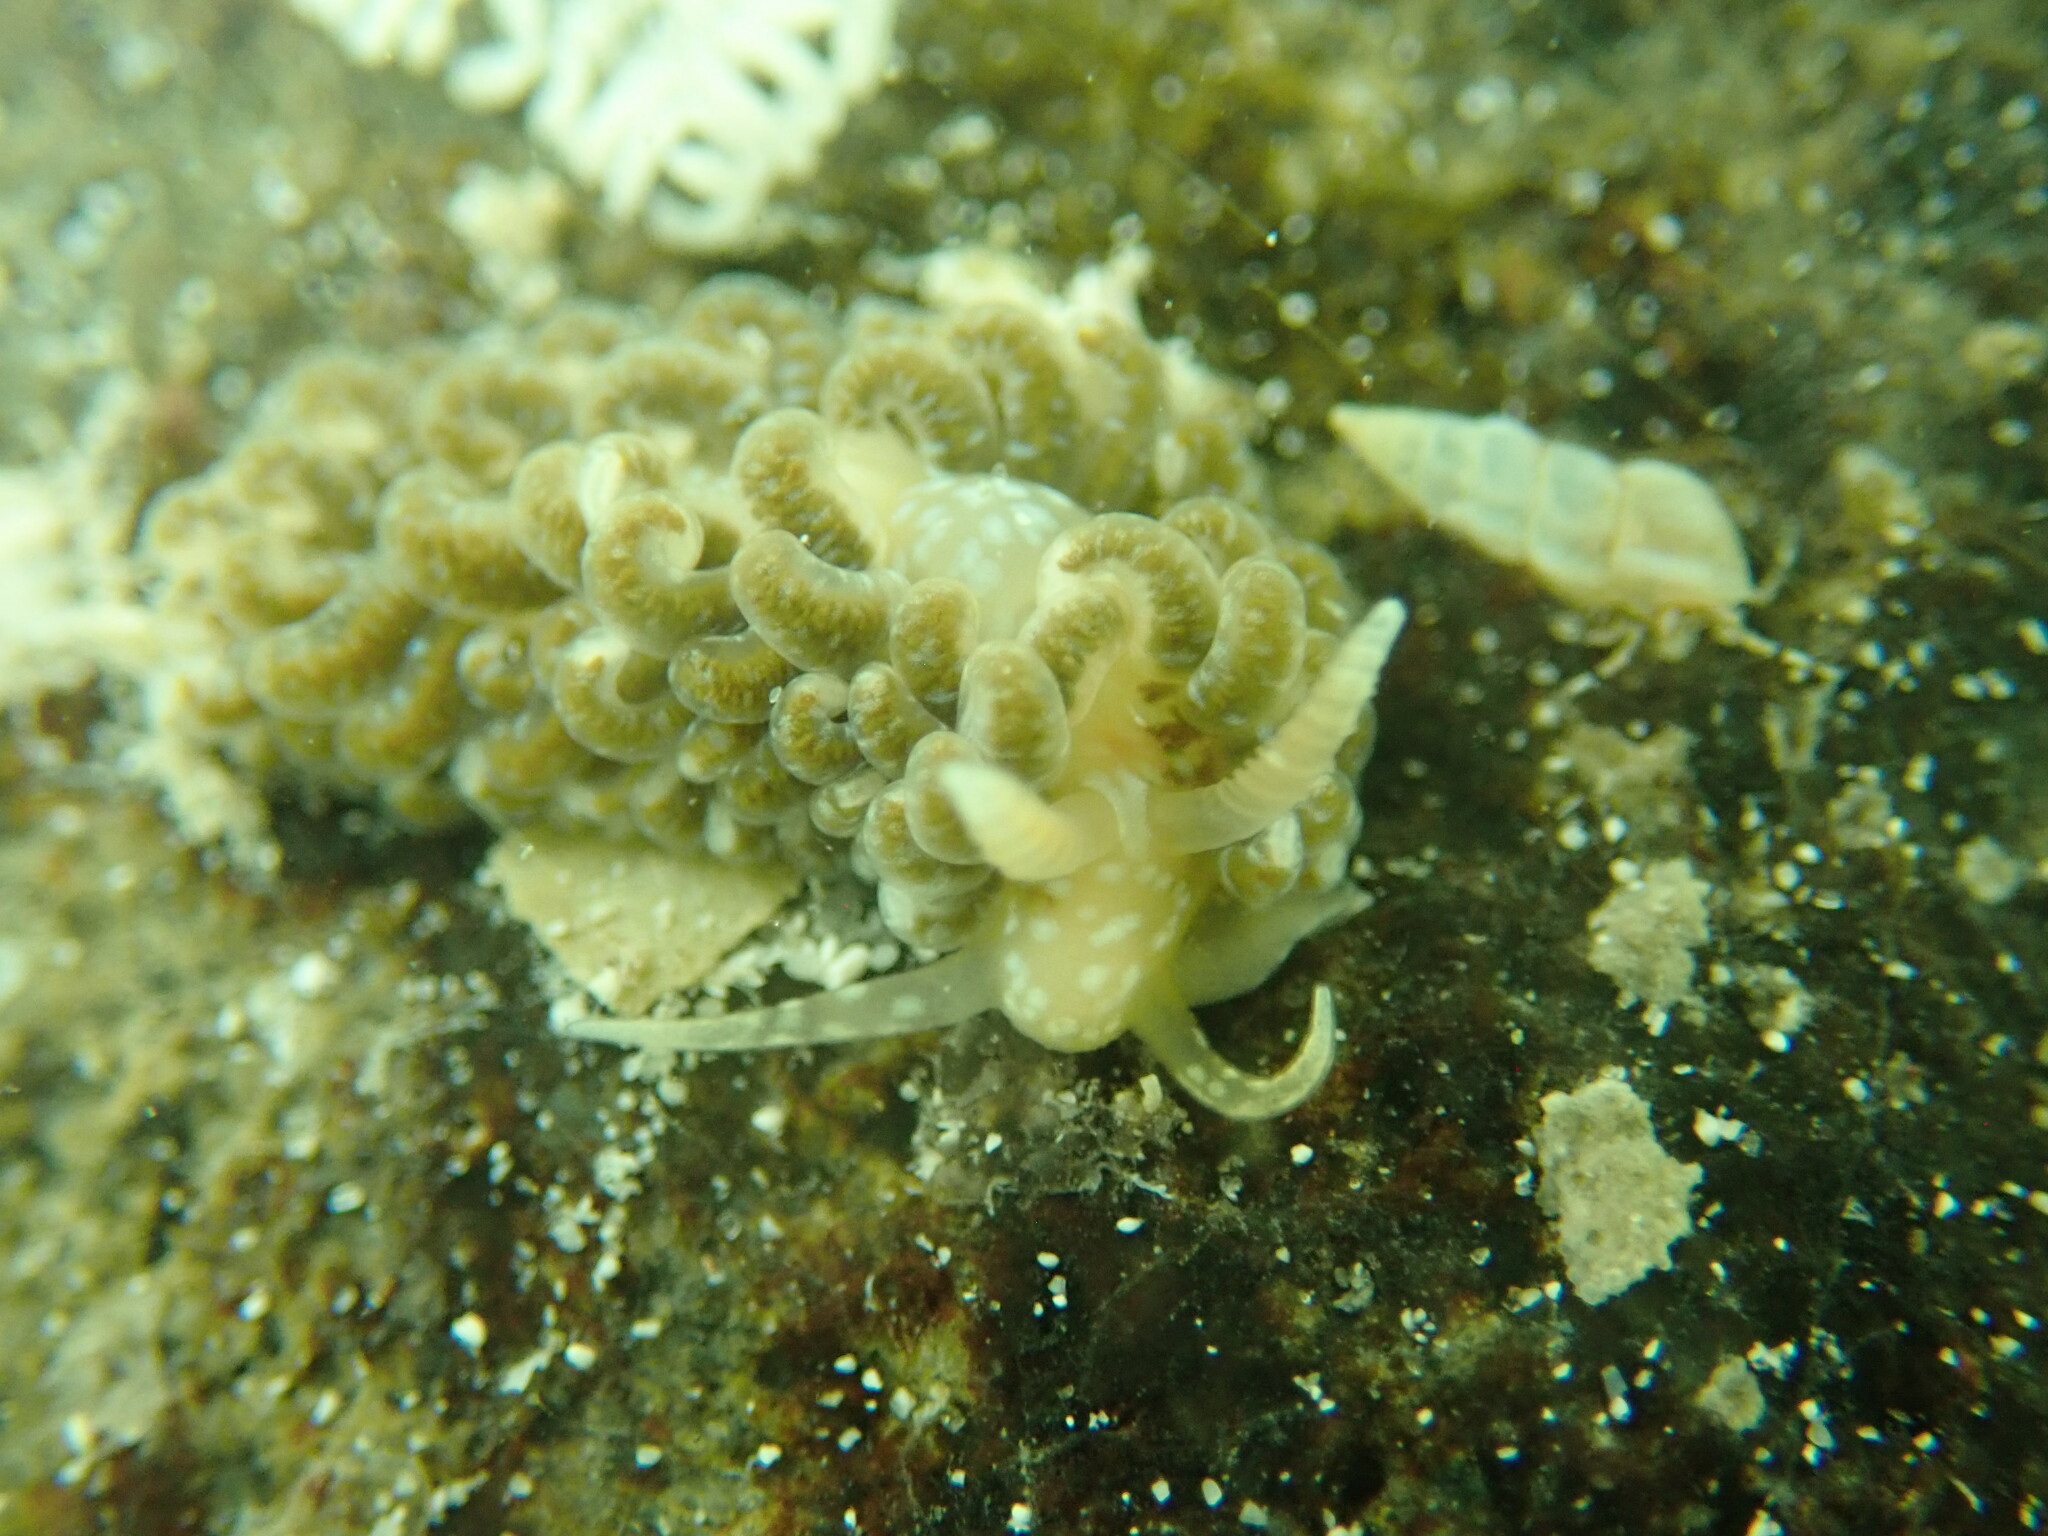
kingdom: Animalia
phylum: Mollusca
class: Gastropoda
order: Nudibranchia
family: Aeolidiidae
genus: Spurilla
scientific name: Spurilla braziliana
